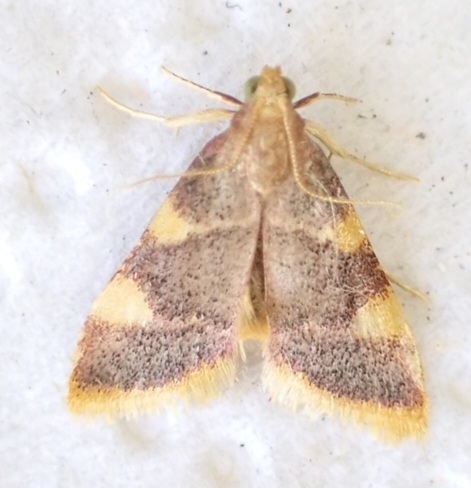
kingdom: Animalia
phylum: Arthropoda
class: Insecta
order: Lepidoptera
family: Pyralidae
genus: Hypsopygia
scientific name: Hypsopygia costalis
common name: Gold triangle
